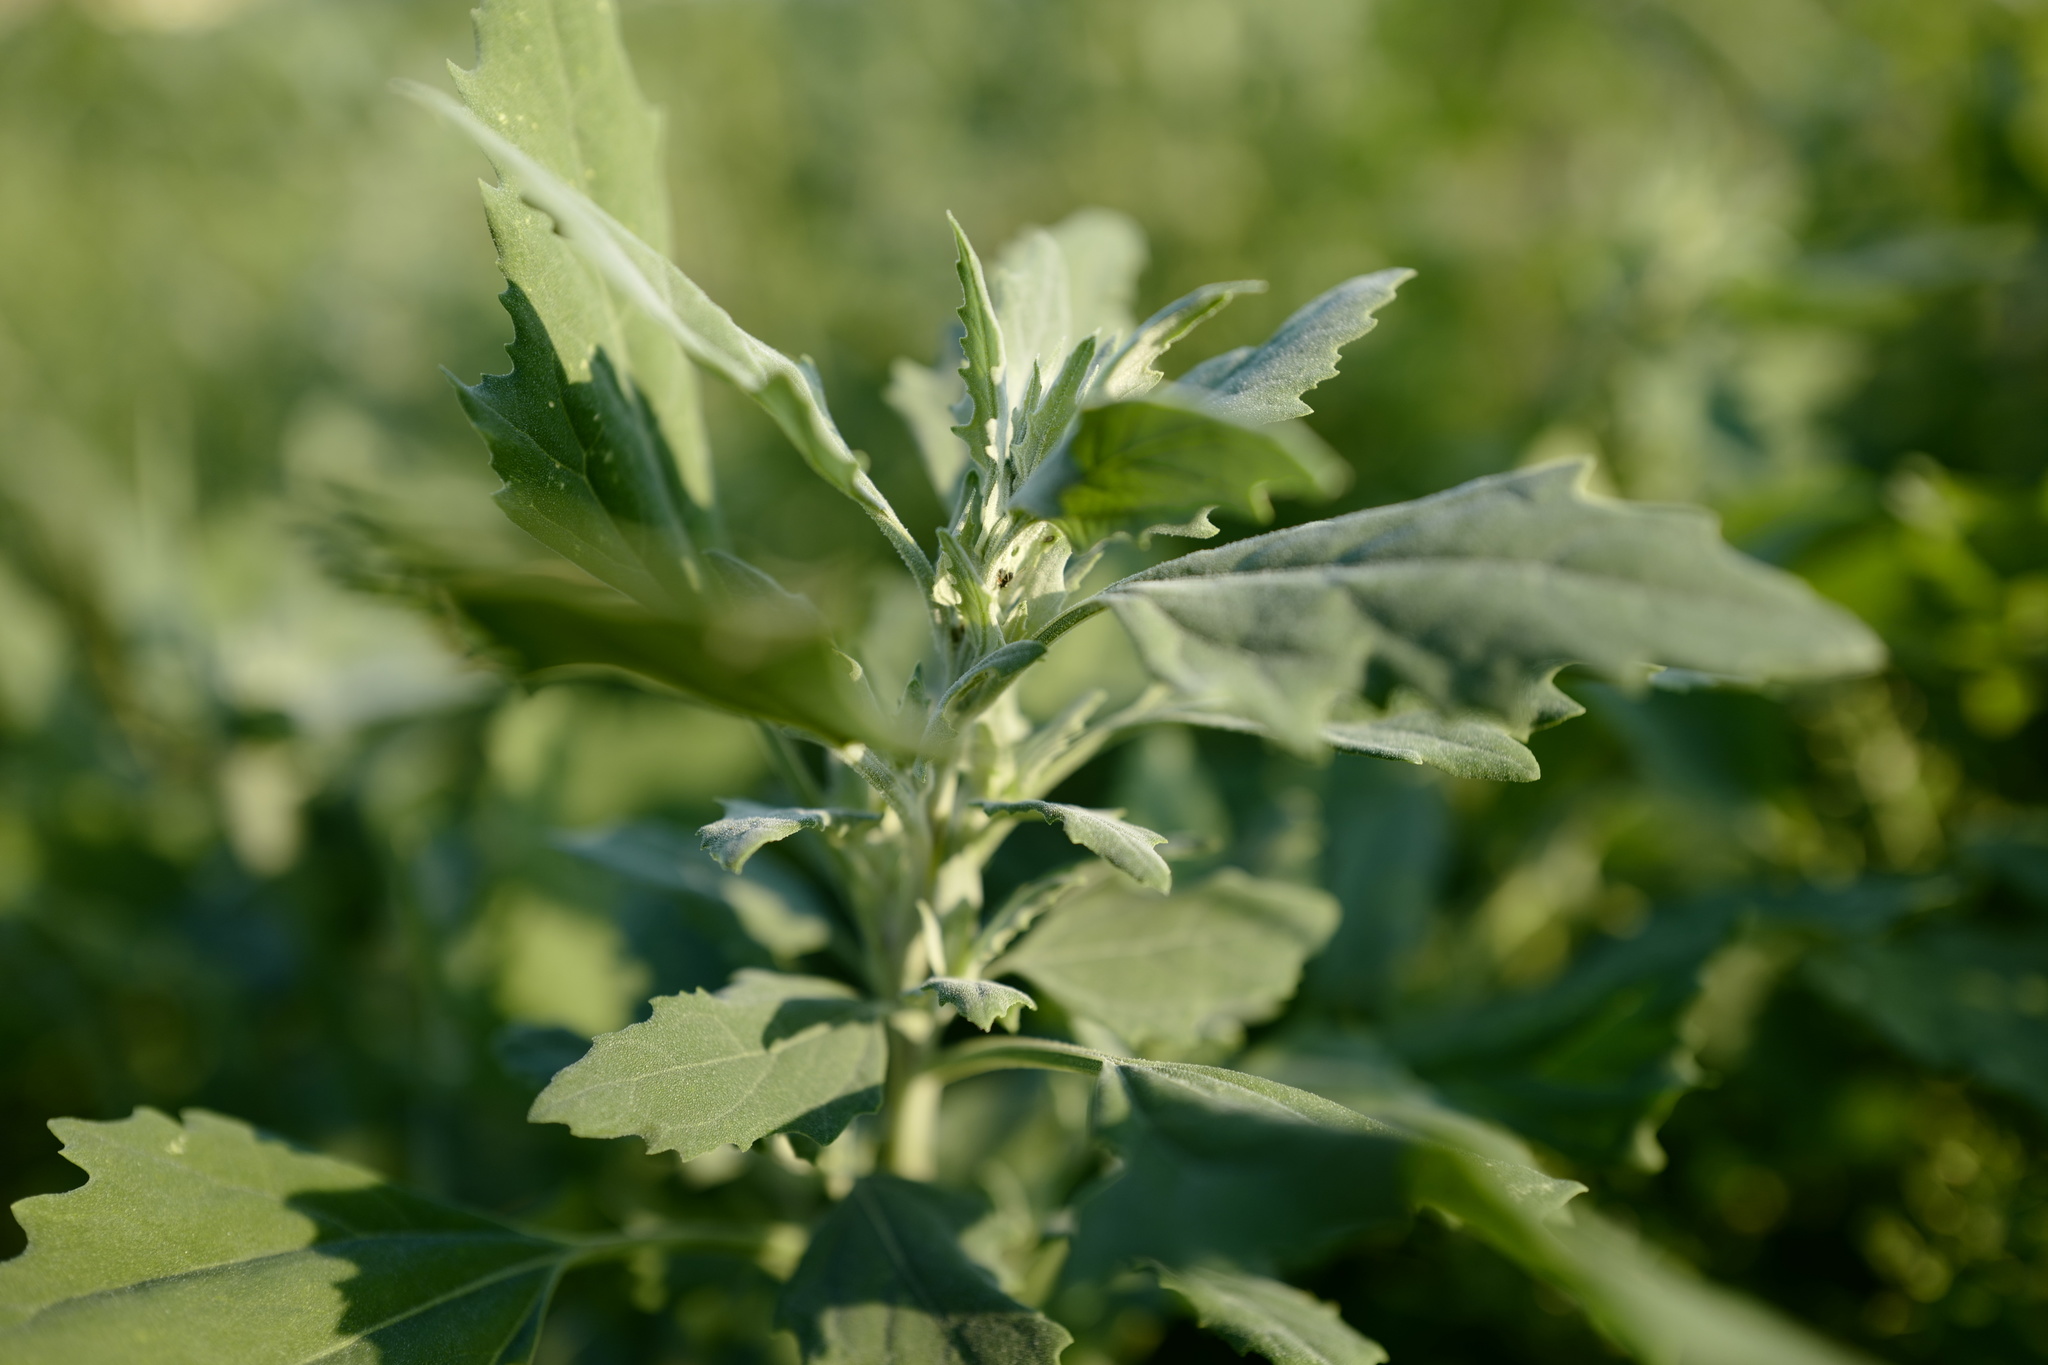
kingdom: Plantae
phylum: Tracheophyta
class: Magnoliopsida
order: Caryophyllales
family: Amaranthaceae
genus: Chenopodium
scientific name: Chenopodium album
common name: Fat-hen
